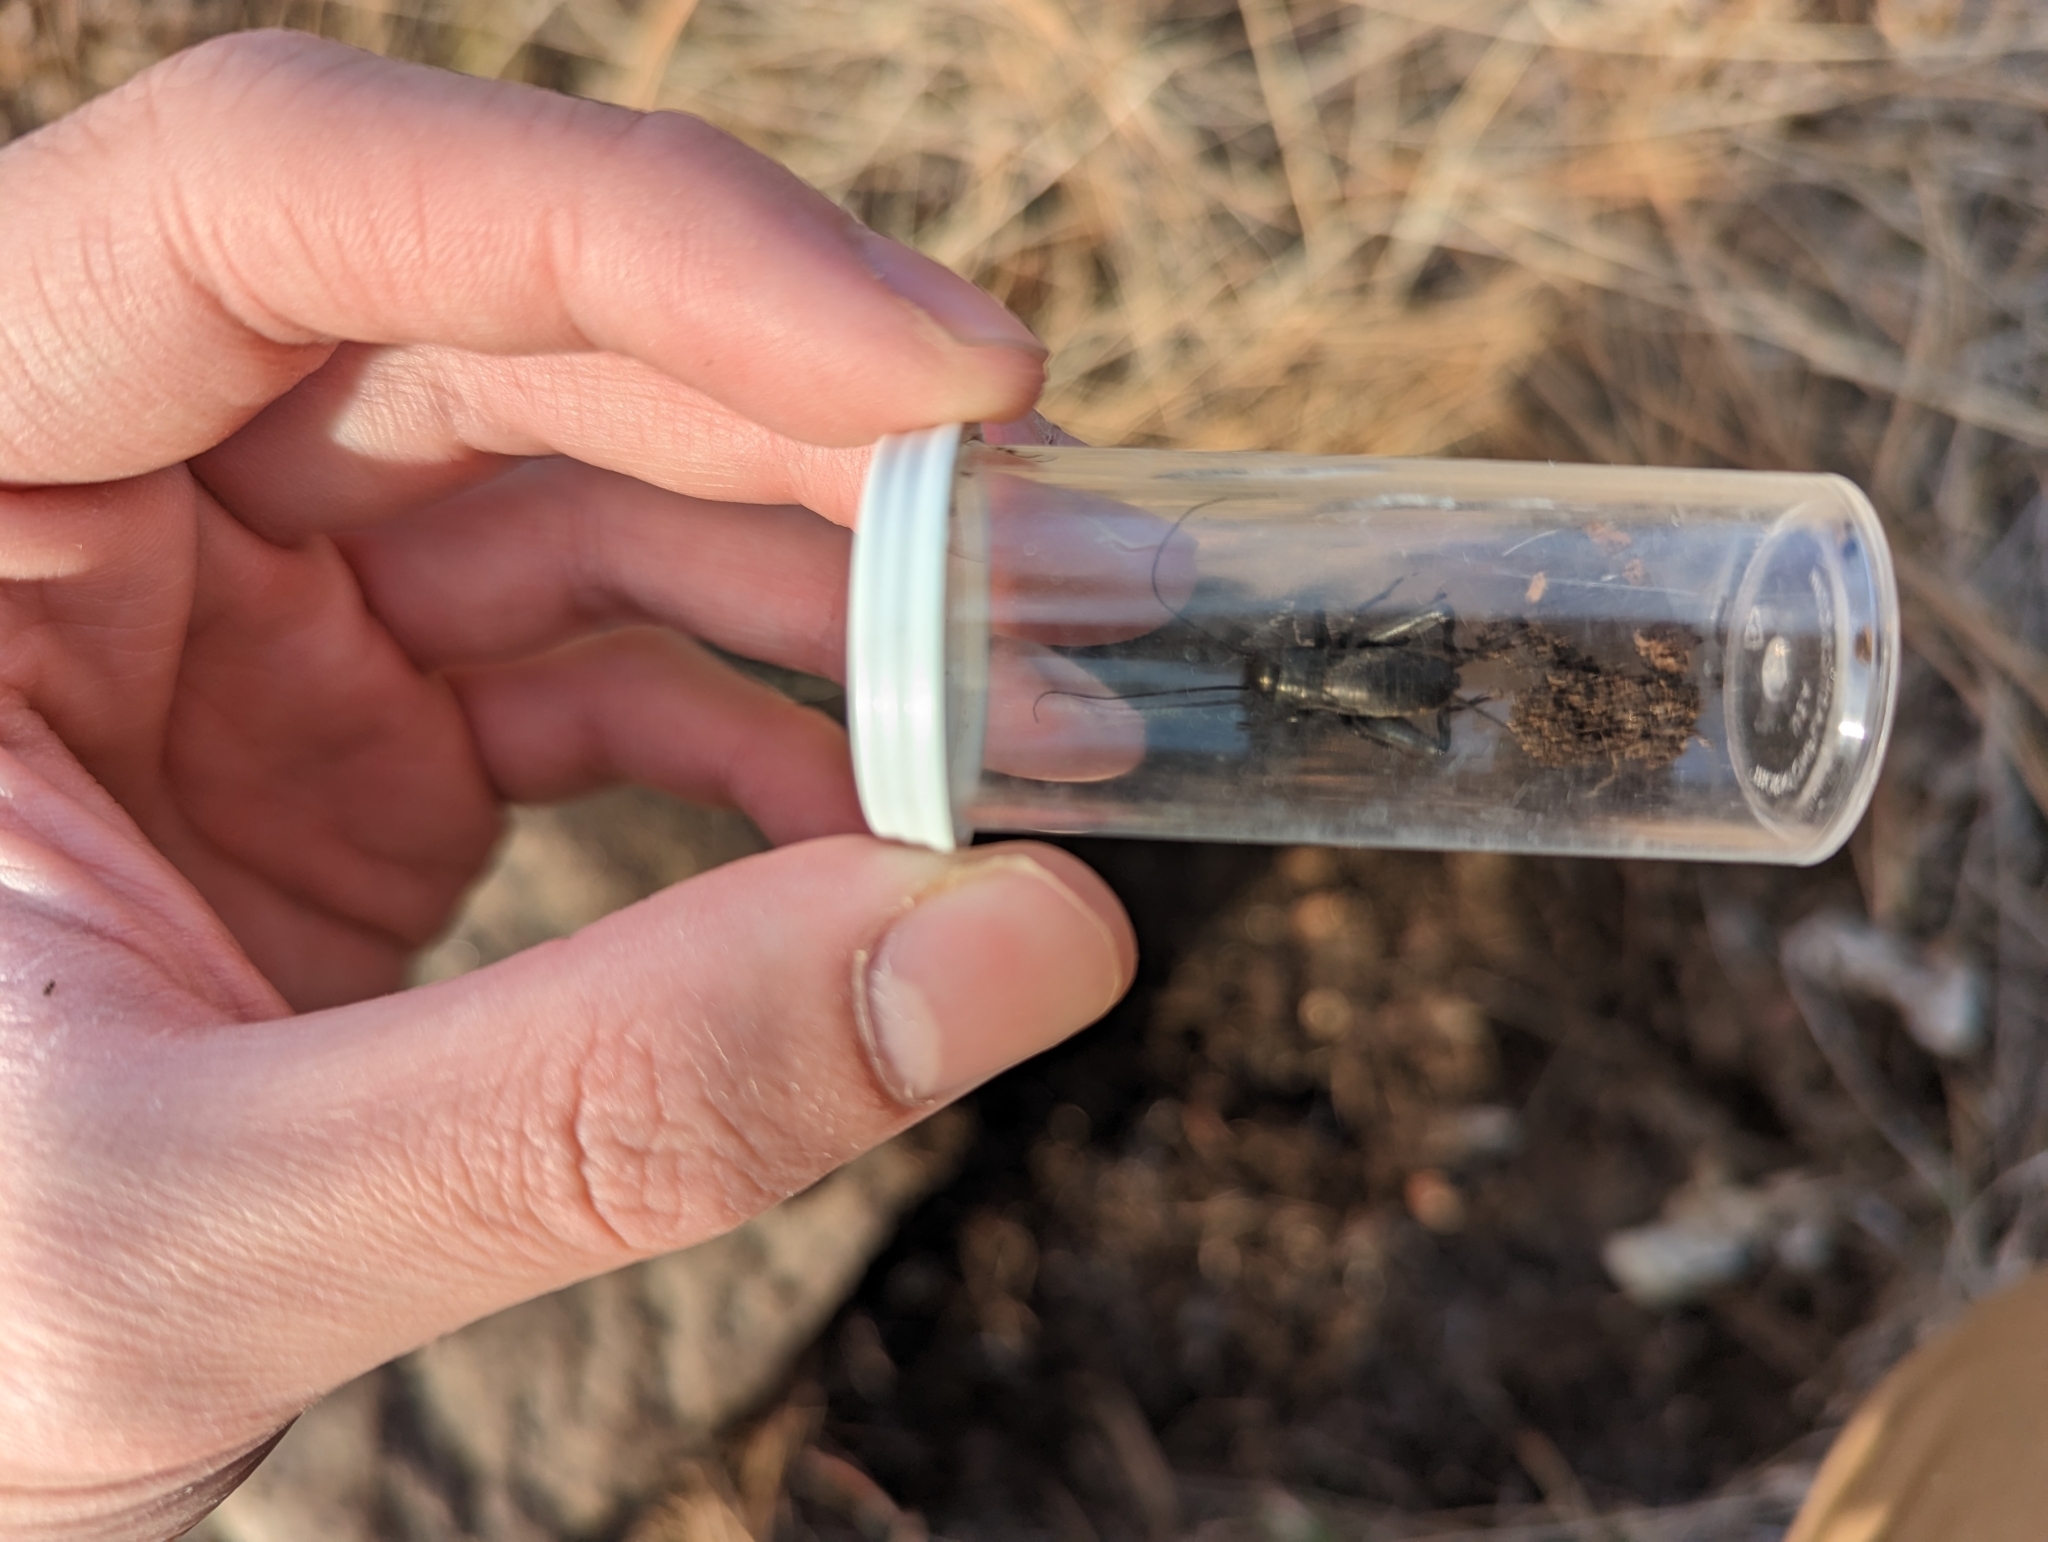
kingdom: Animalia
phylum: Arthropoda
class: Insecta
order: Orthoptera
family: Gryllidae
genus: Gryllus
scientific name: Gryllus veletis
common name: Spring field cricket
